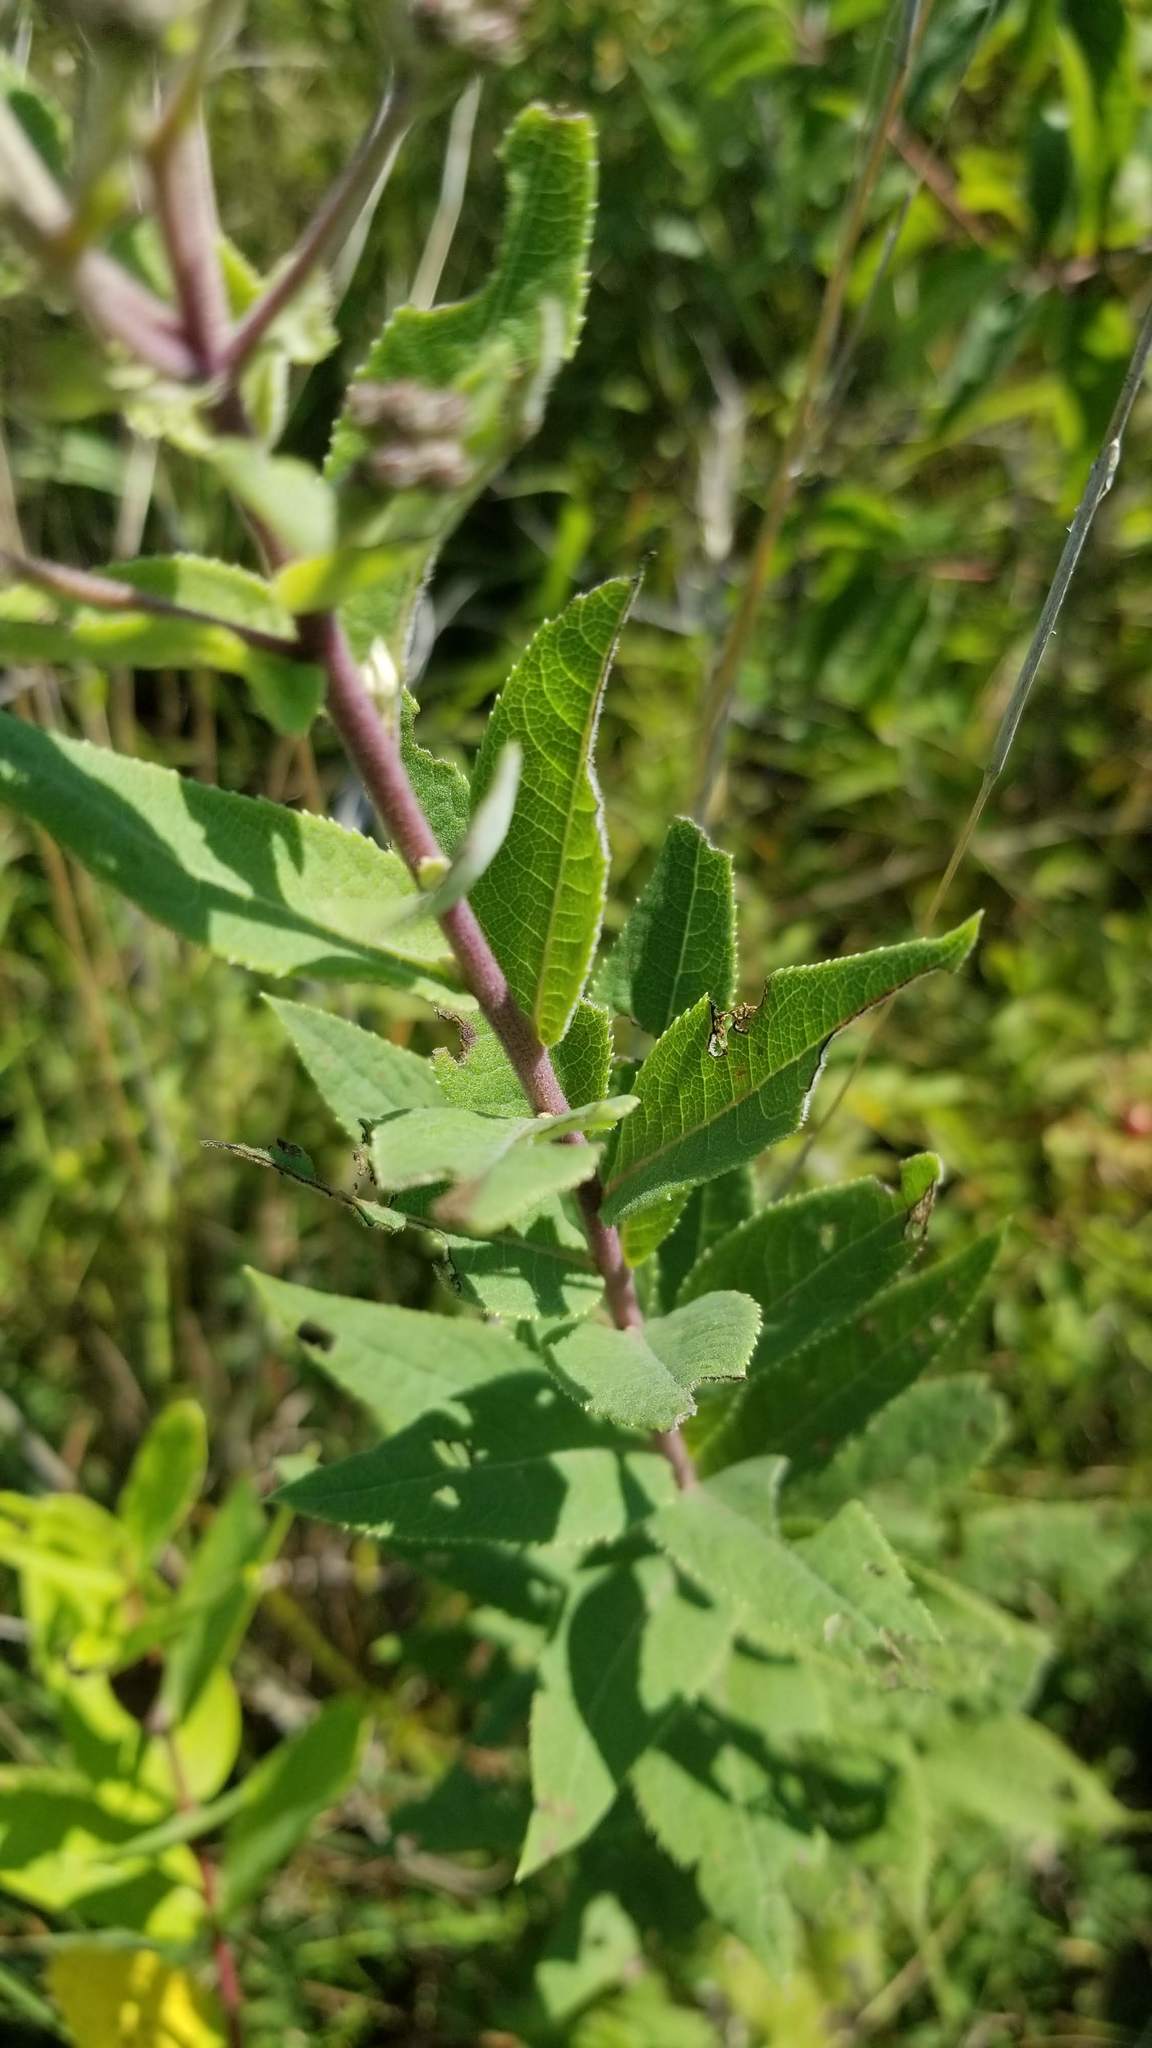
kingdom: Plantae
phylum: Tracheophyta
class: Magnoliopsida
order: Asterales
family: Asteraceae
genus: Vernonia
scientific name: Vernonia baldwinii
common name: Western ironweed
